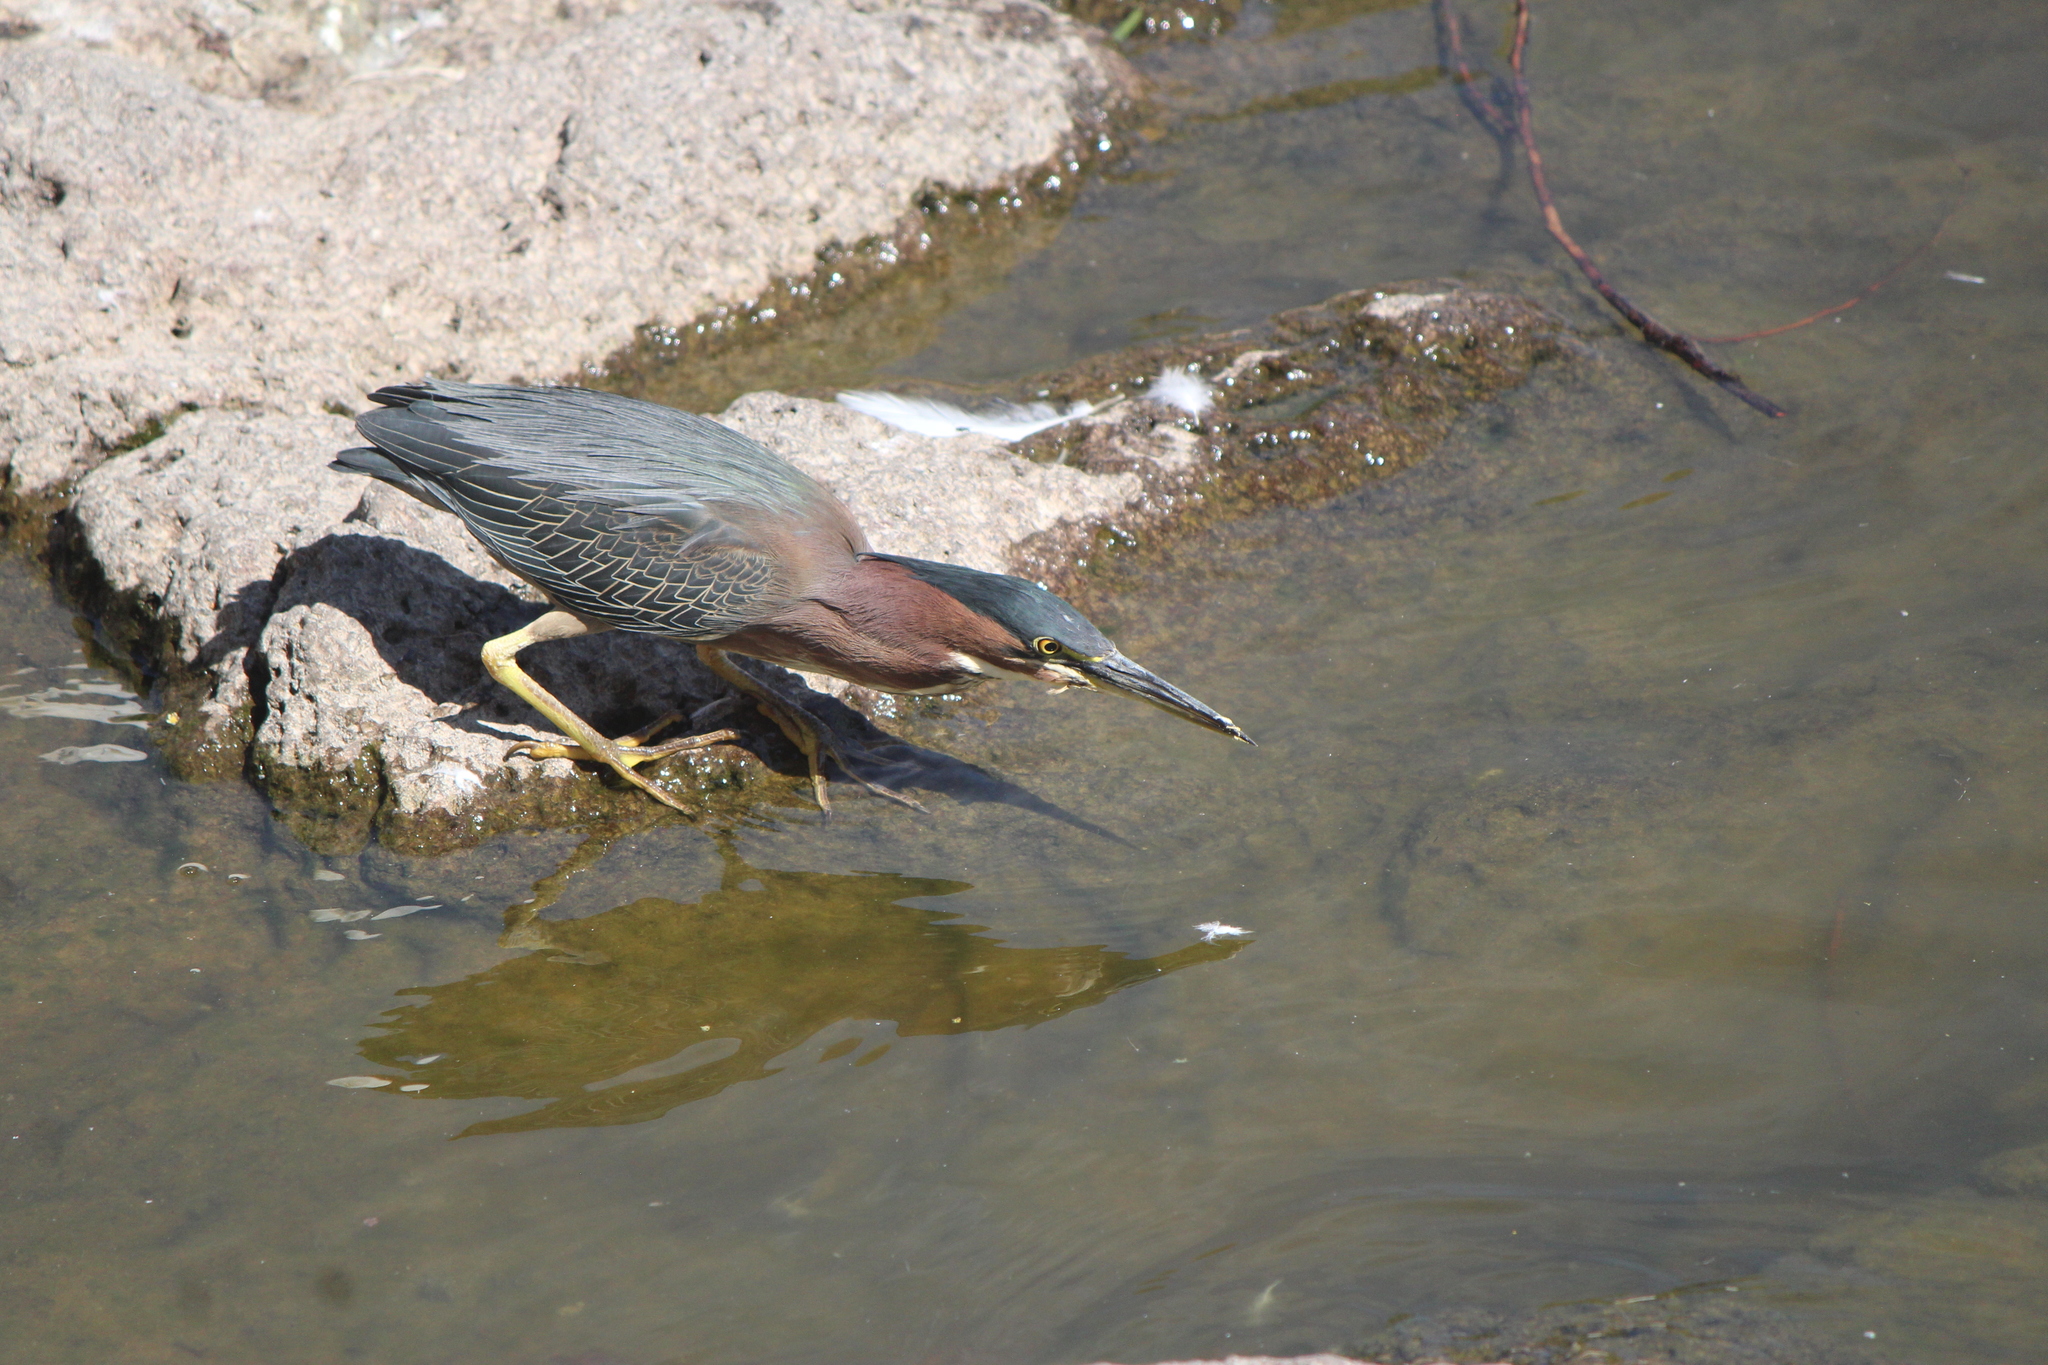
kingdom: Animalia
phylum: Chordata
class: Aves
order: Pelecaniformes
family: Ardeidae
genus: Butorides
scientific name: Butorides virescens
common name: Green heron
